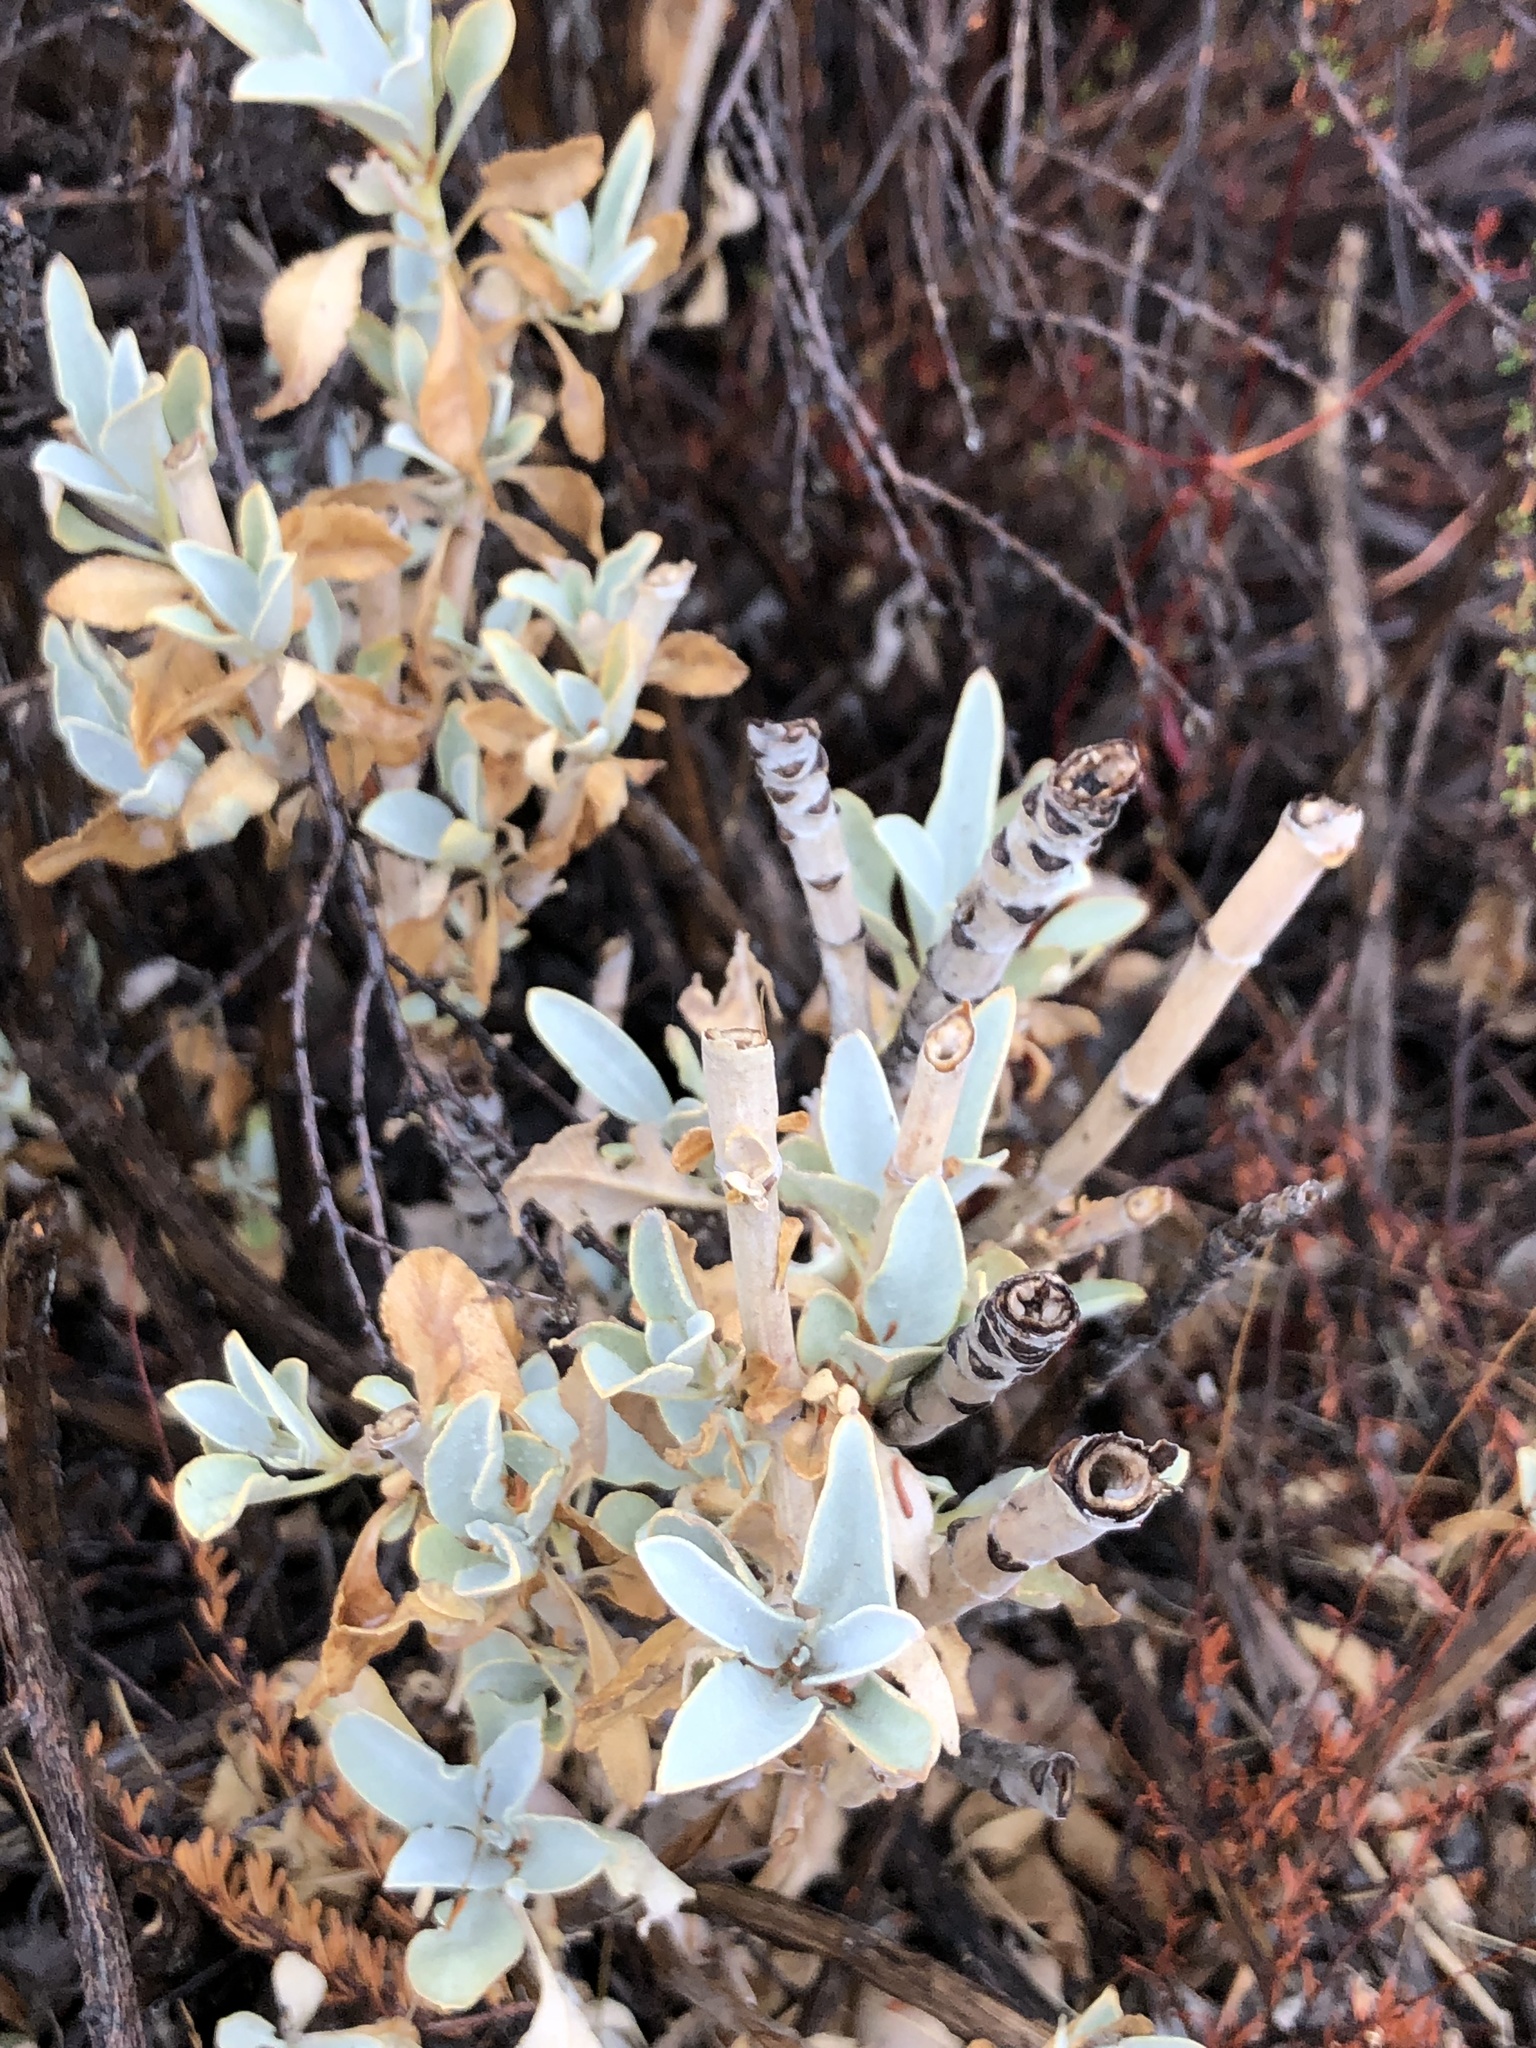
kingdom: Plantae
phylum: Tracheophyta
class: Magnoliopsida
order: Lamiales
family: Lamiaceae
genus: Salvia
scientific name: Salvia apiana
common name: White sage
